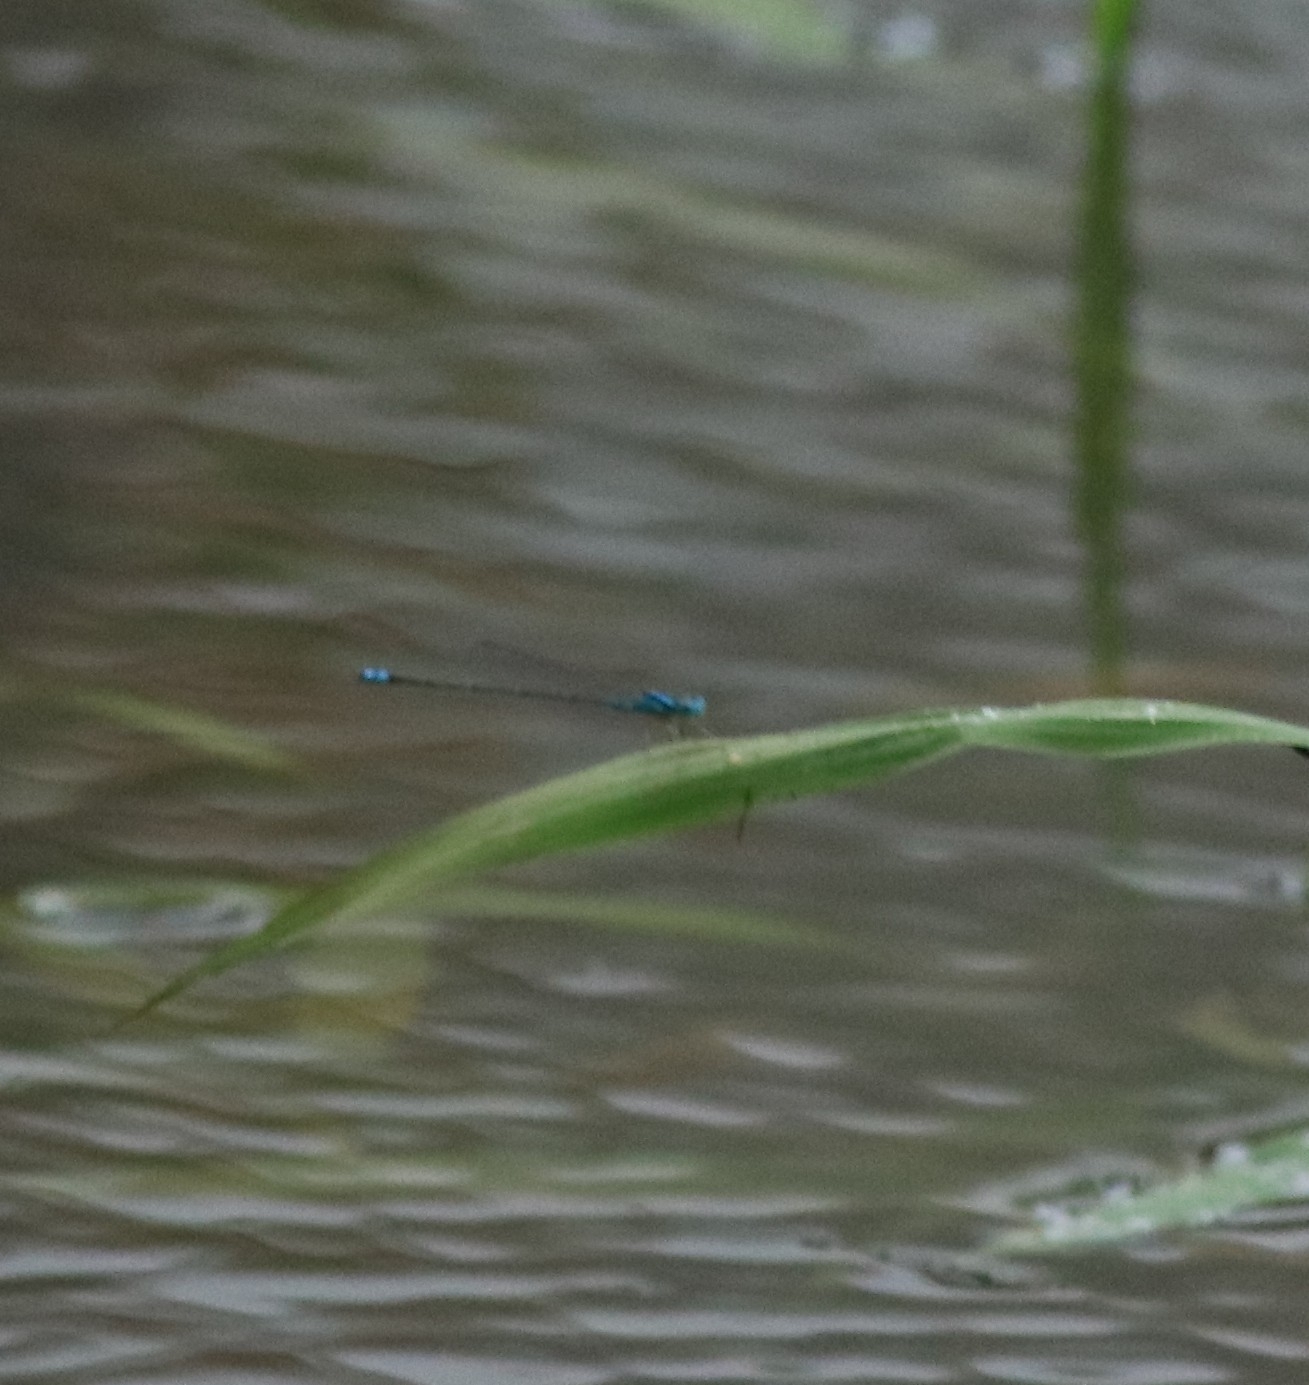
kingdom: Animalia
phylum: Arthropoda
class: Insecta
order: Odonata
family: Coenagrionidae
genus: Pseudagrion
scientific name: Pseudagrion microcephalum
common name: Blue riverdamsel
